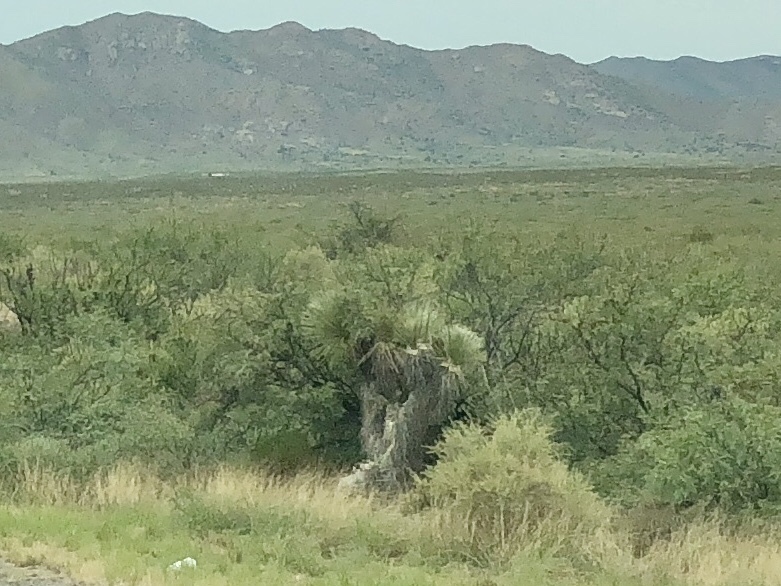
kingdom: Plantae
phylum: Tracheophyta
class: Liliopsida
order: Asparagales
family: Asparagaceae
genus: Yucca
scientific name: Yucca elata
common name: Palmella
